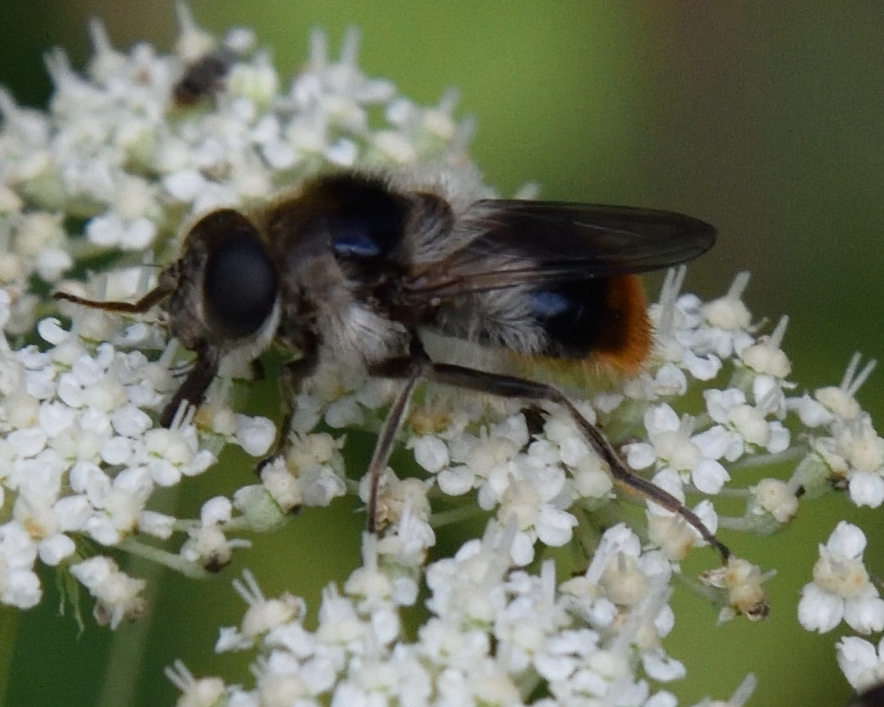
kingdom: Animalia
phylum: Arthropoda
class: Insecta
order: Diptera
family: Syrphidae
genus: Cheilosia
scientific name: Cheilosia illustrata
